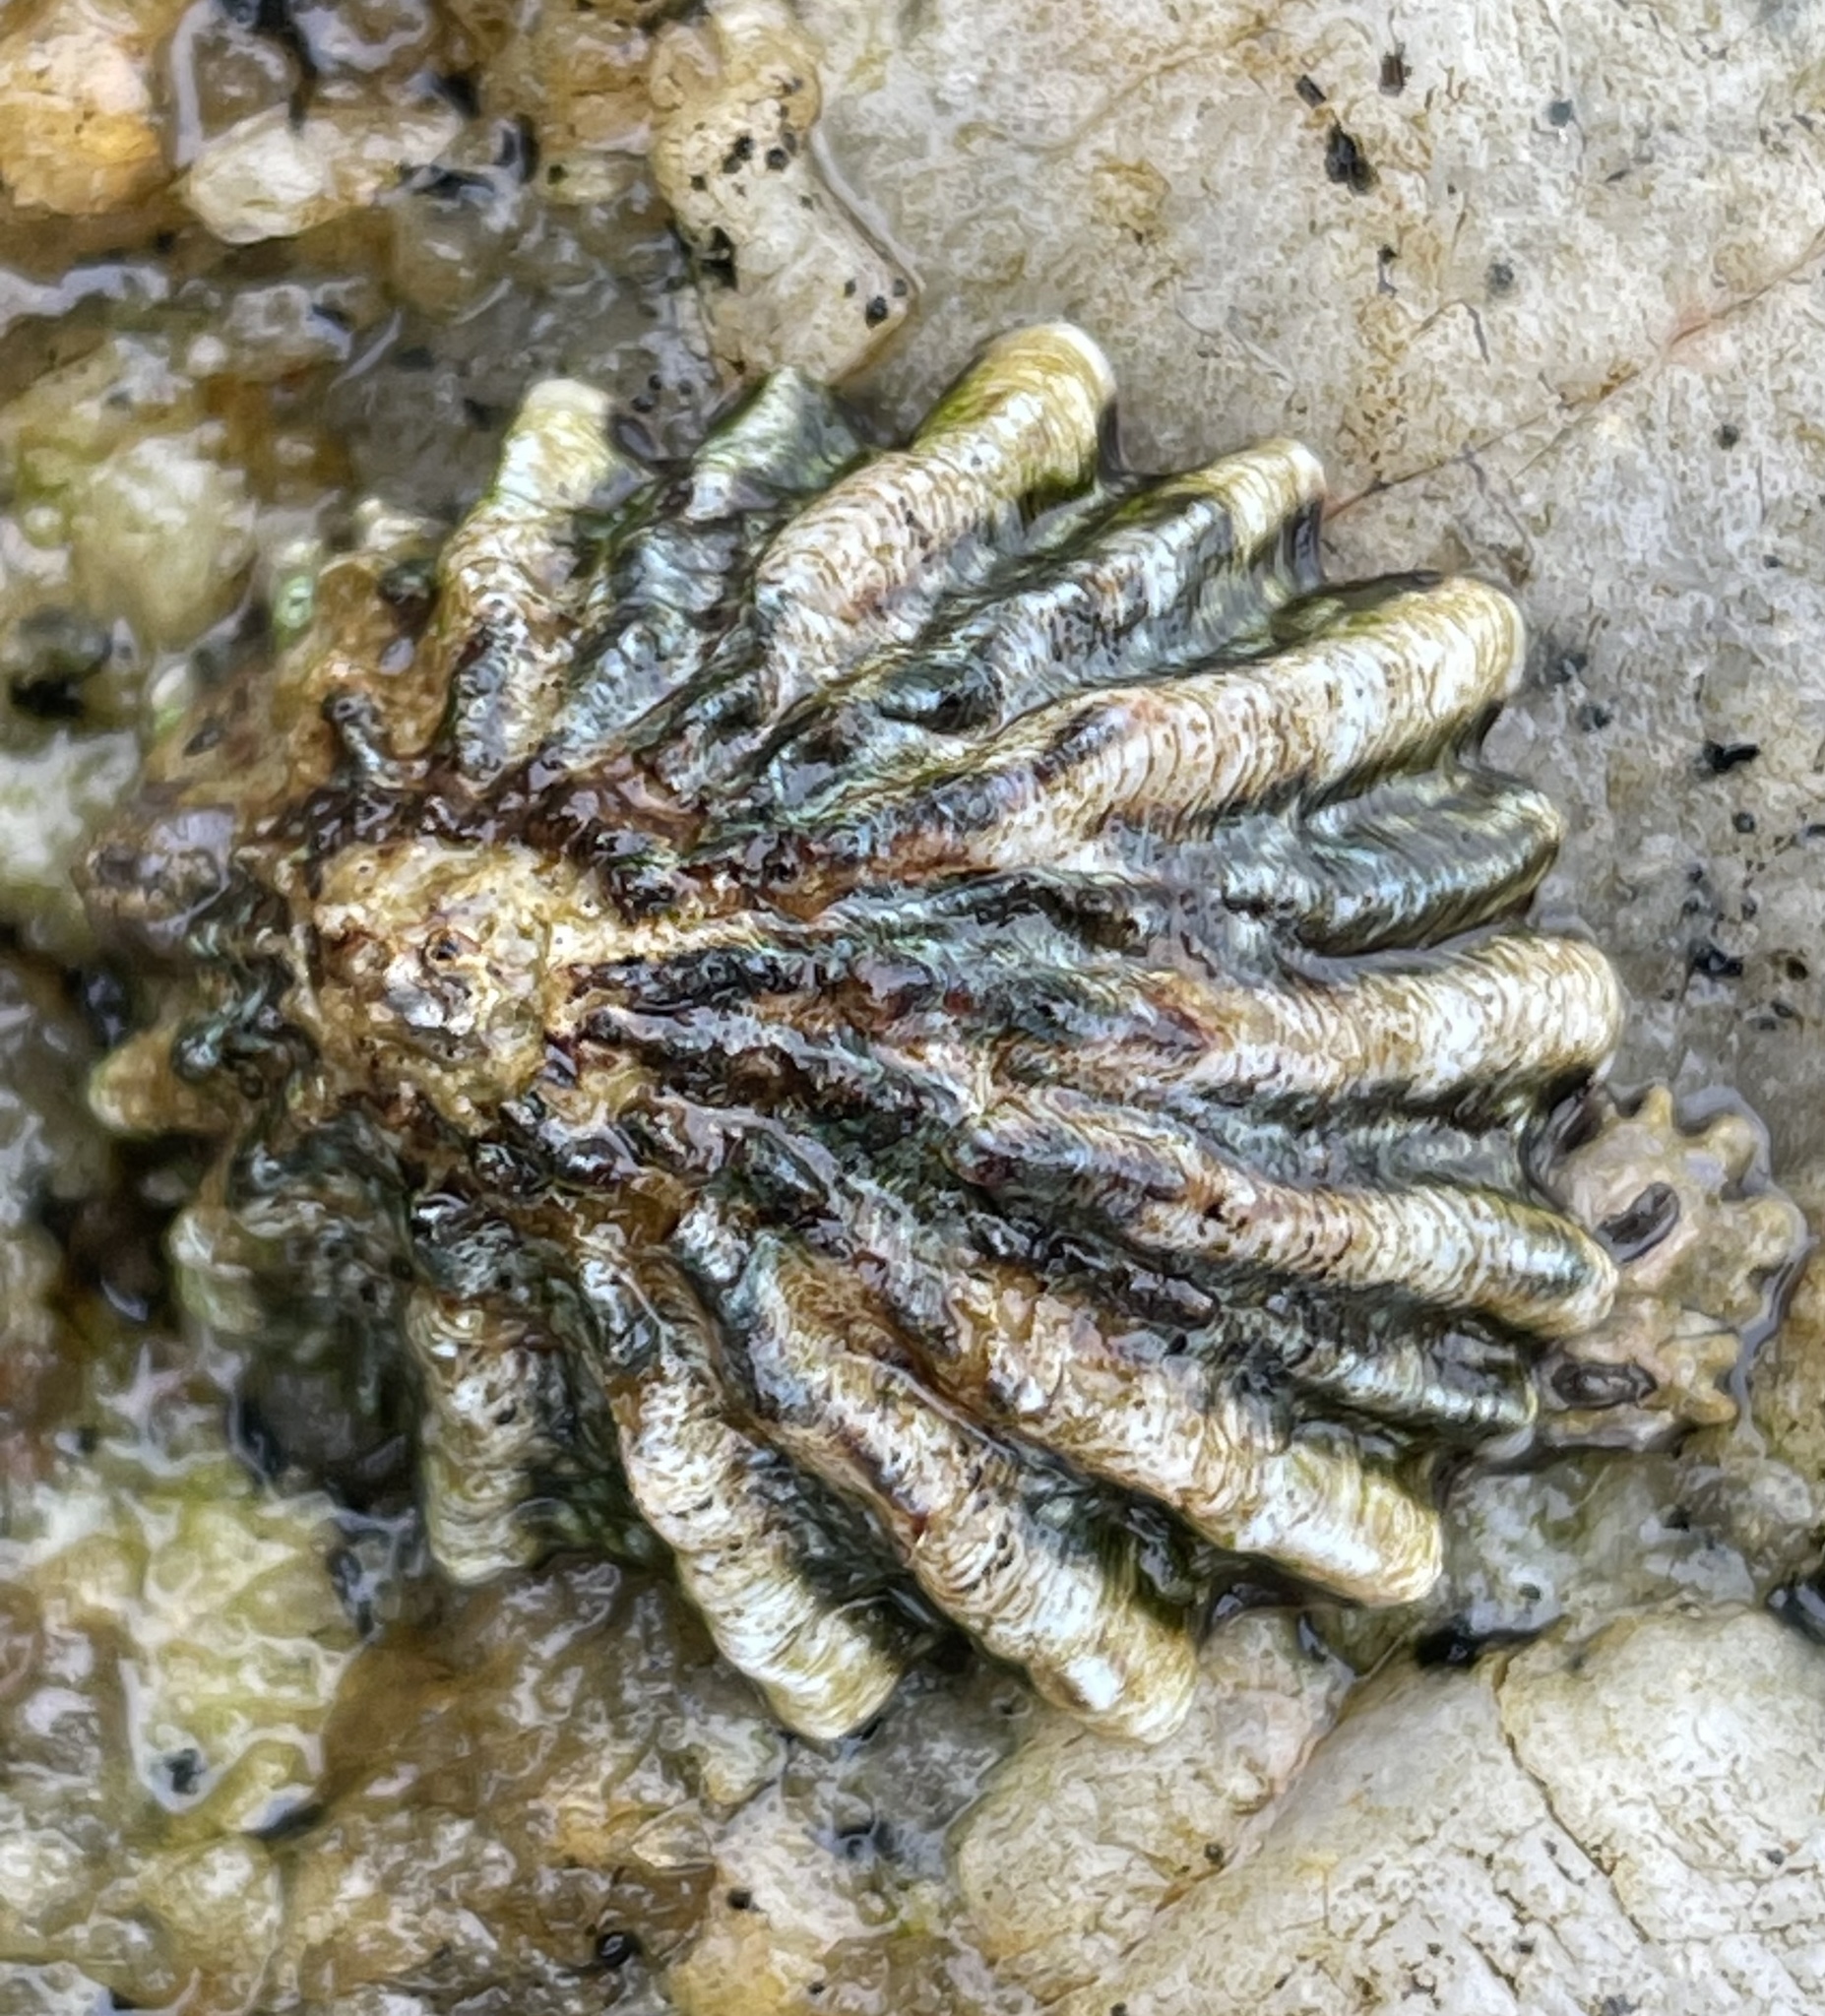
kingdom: Animalia
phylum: Mollusca
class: Gastropoda
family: Lottiidae
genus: Lottia
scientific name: Lottia scabra
